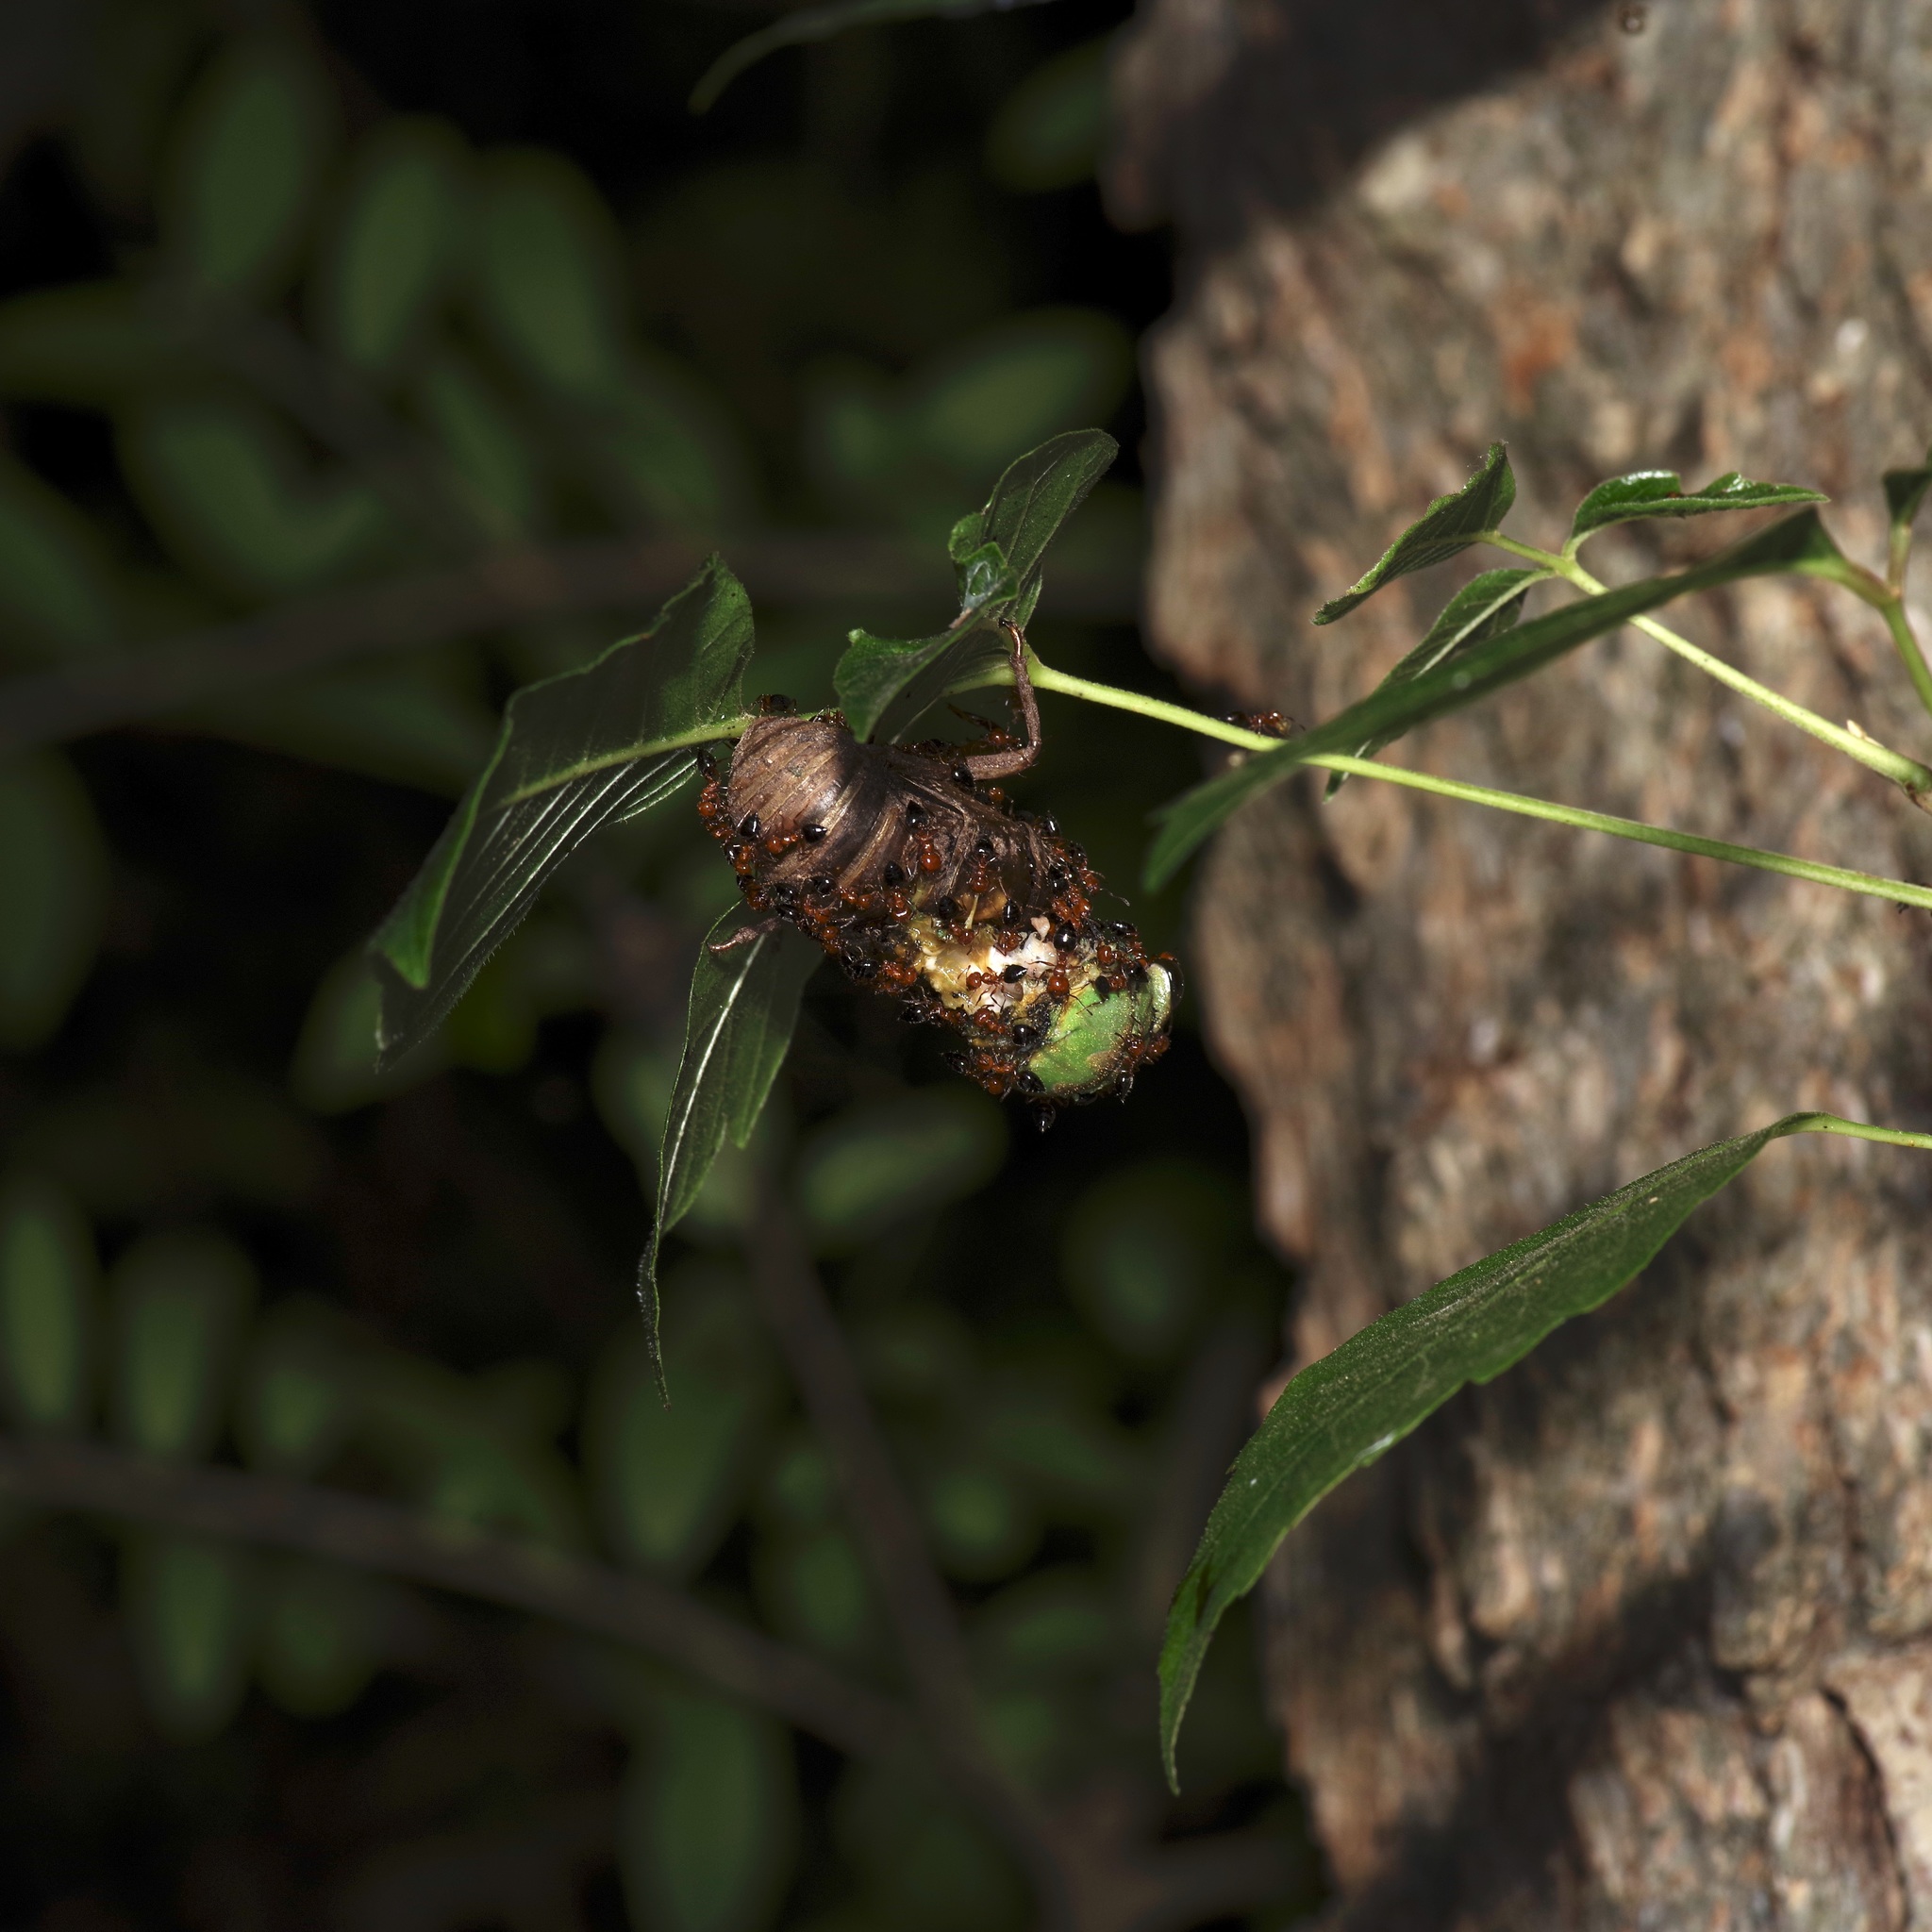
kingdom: Animalia
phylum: Arthropoda
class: Insecta
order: Hemiptera
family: Cicadidae
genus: Neotibicen
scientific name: Neotibicen superbus
